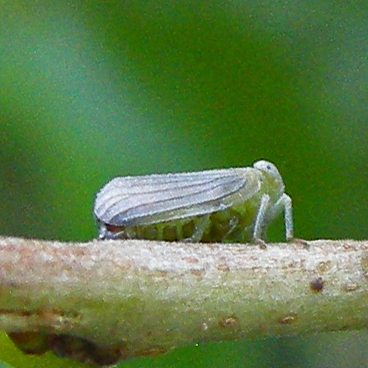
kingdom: Animalia
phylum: Arthropoda
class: Insecta
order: Hemiptera
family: Issidae
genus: Aplos
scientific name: Aplos simplex
